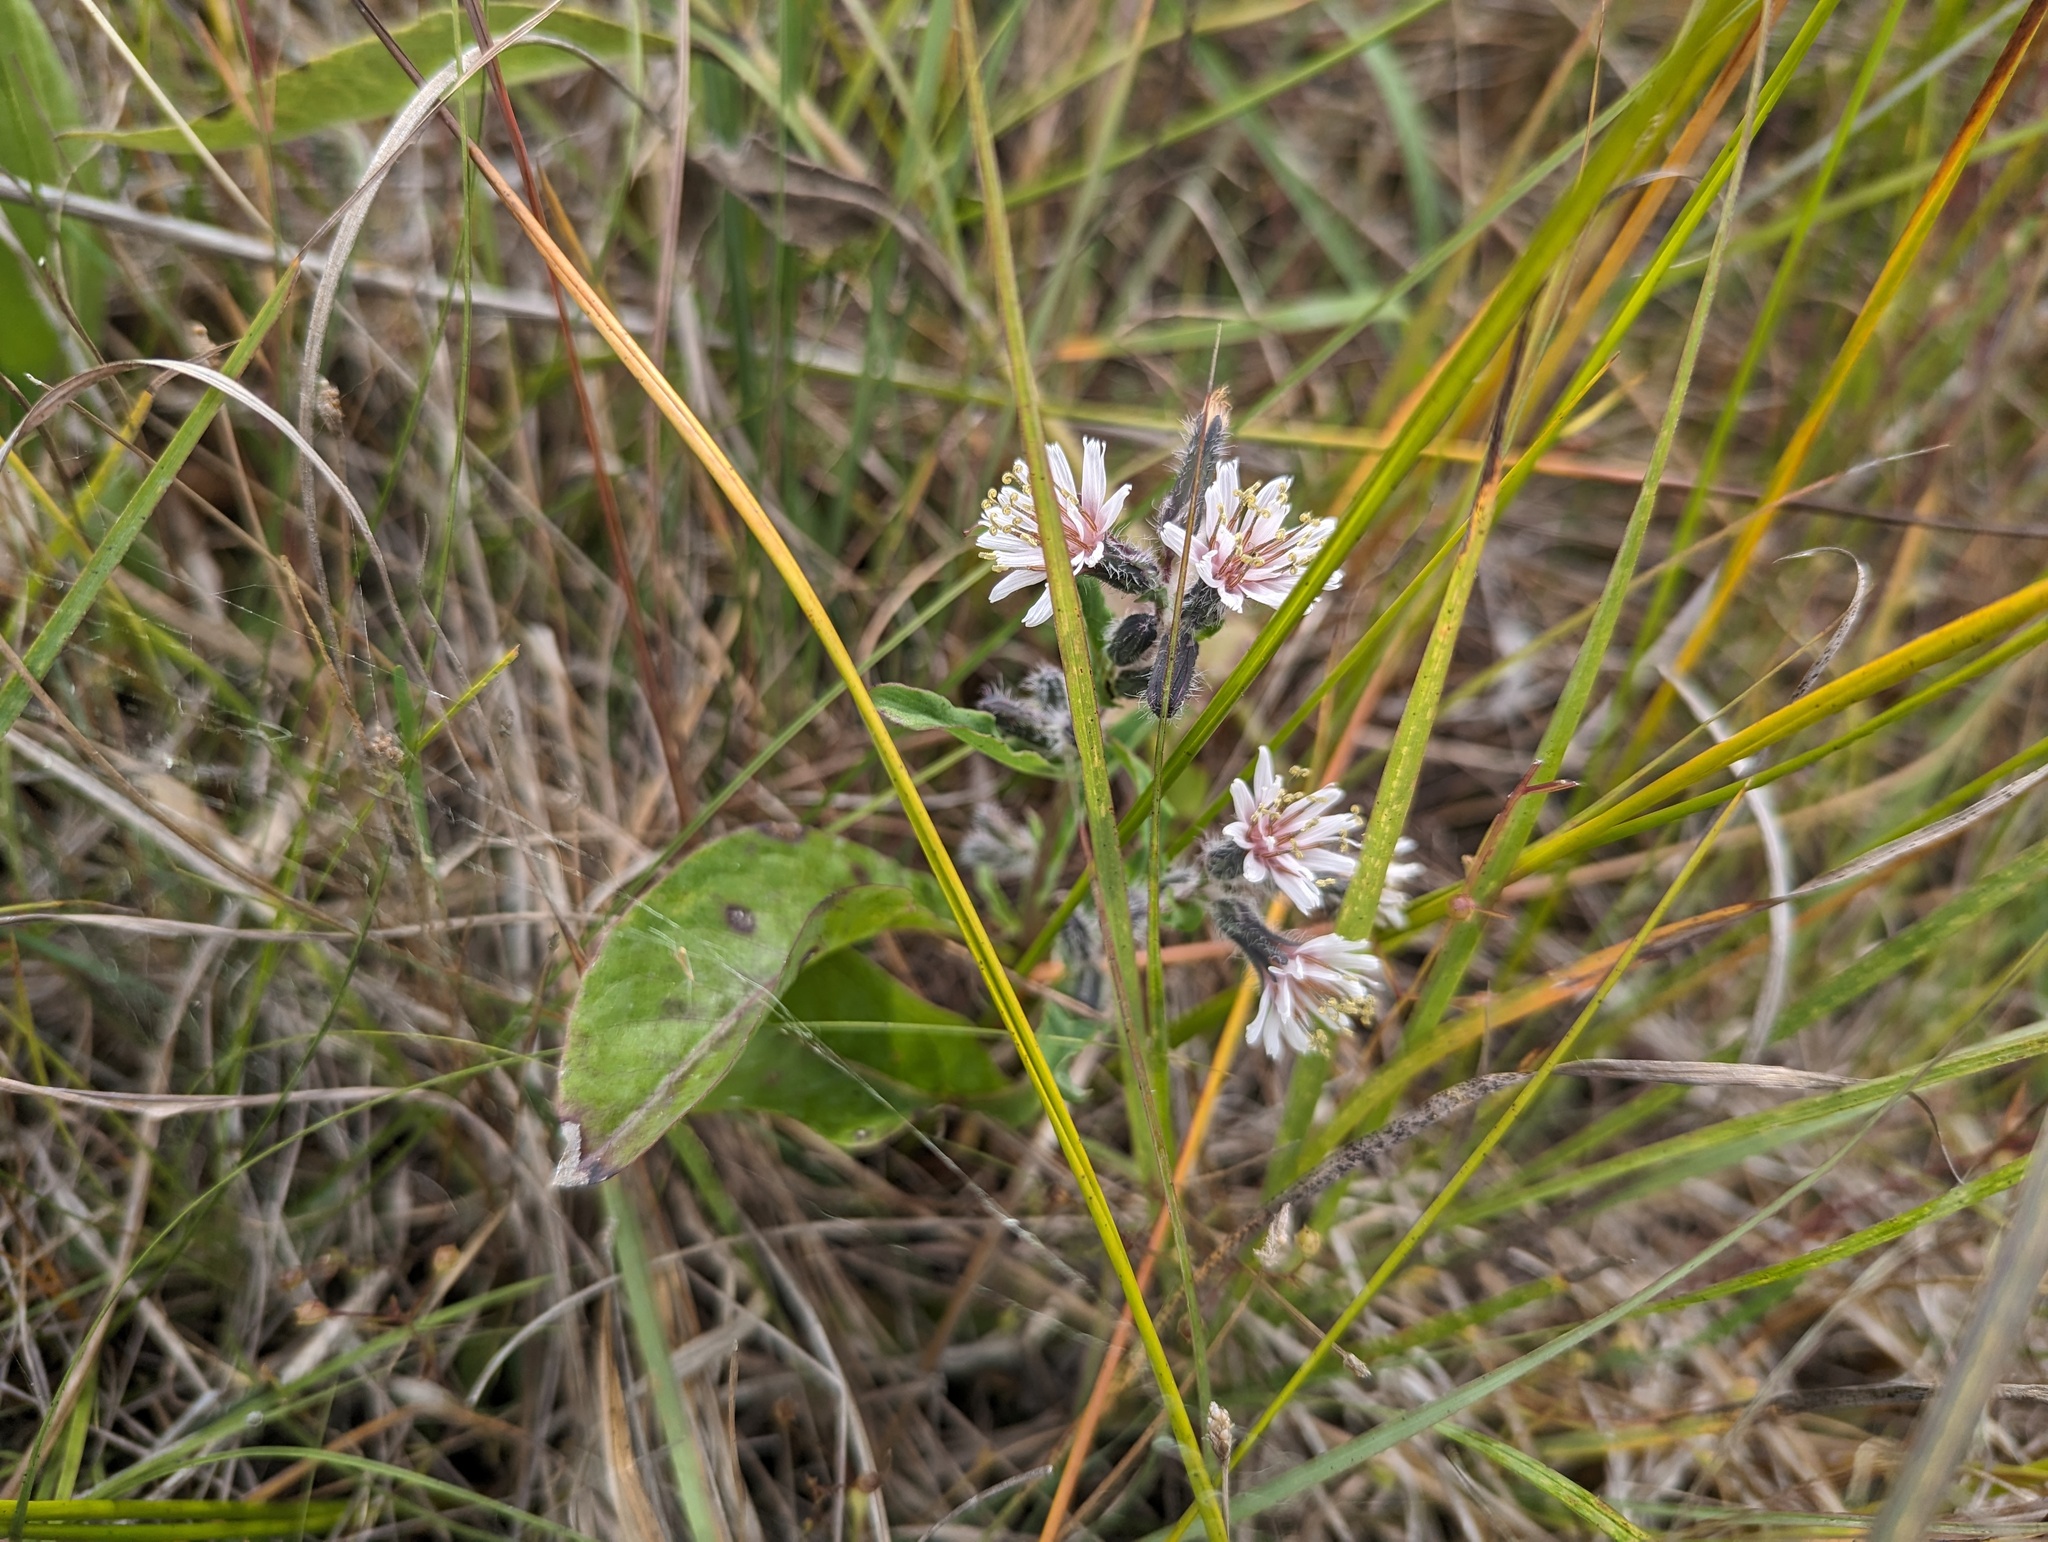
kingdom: Plantae
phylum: Tracheophyta
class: Magnoliopsida
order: Asterales
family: Asteraceae
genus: Nabalus
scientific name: Nabalus racemosus
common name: Glaucous white lettuce
